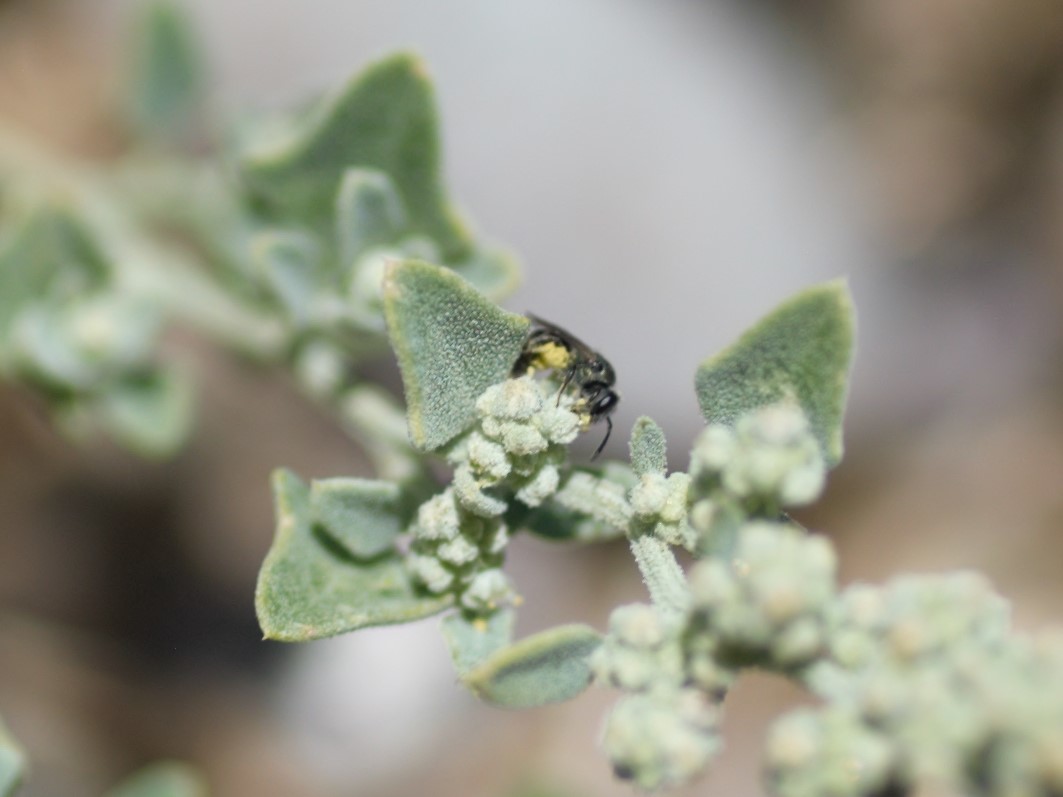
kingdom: Animalia
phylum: Arthropoda
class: Insecta
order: Hymenoptera
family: Halictidae
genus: Dialictus
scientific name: Dialictus
